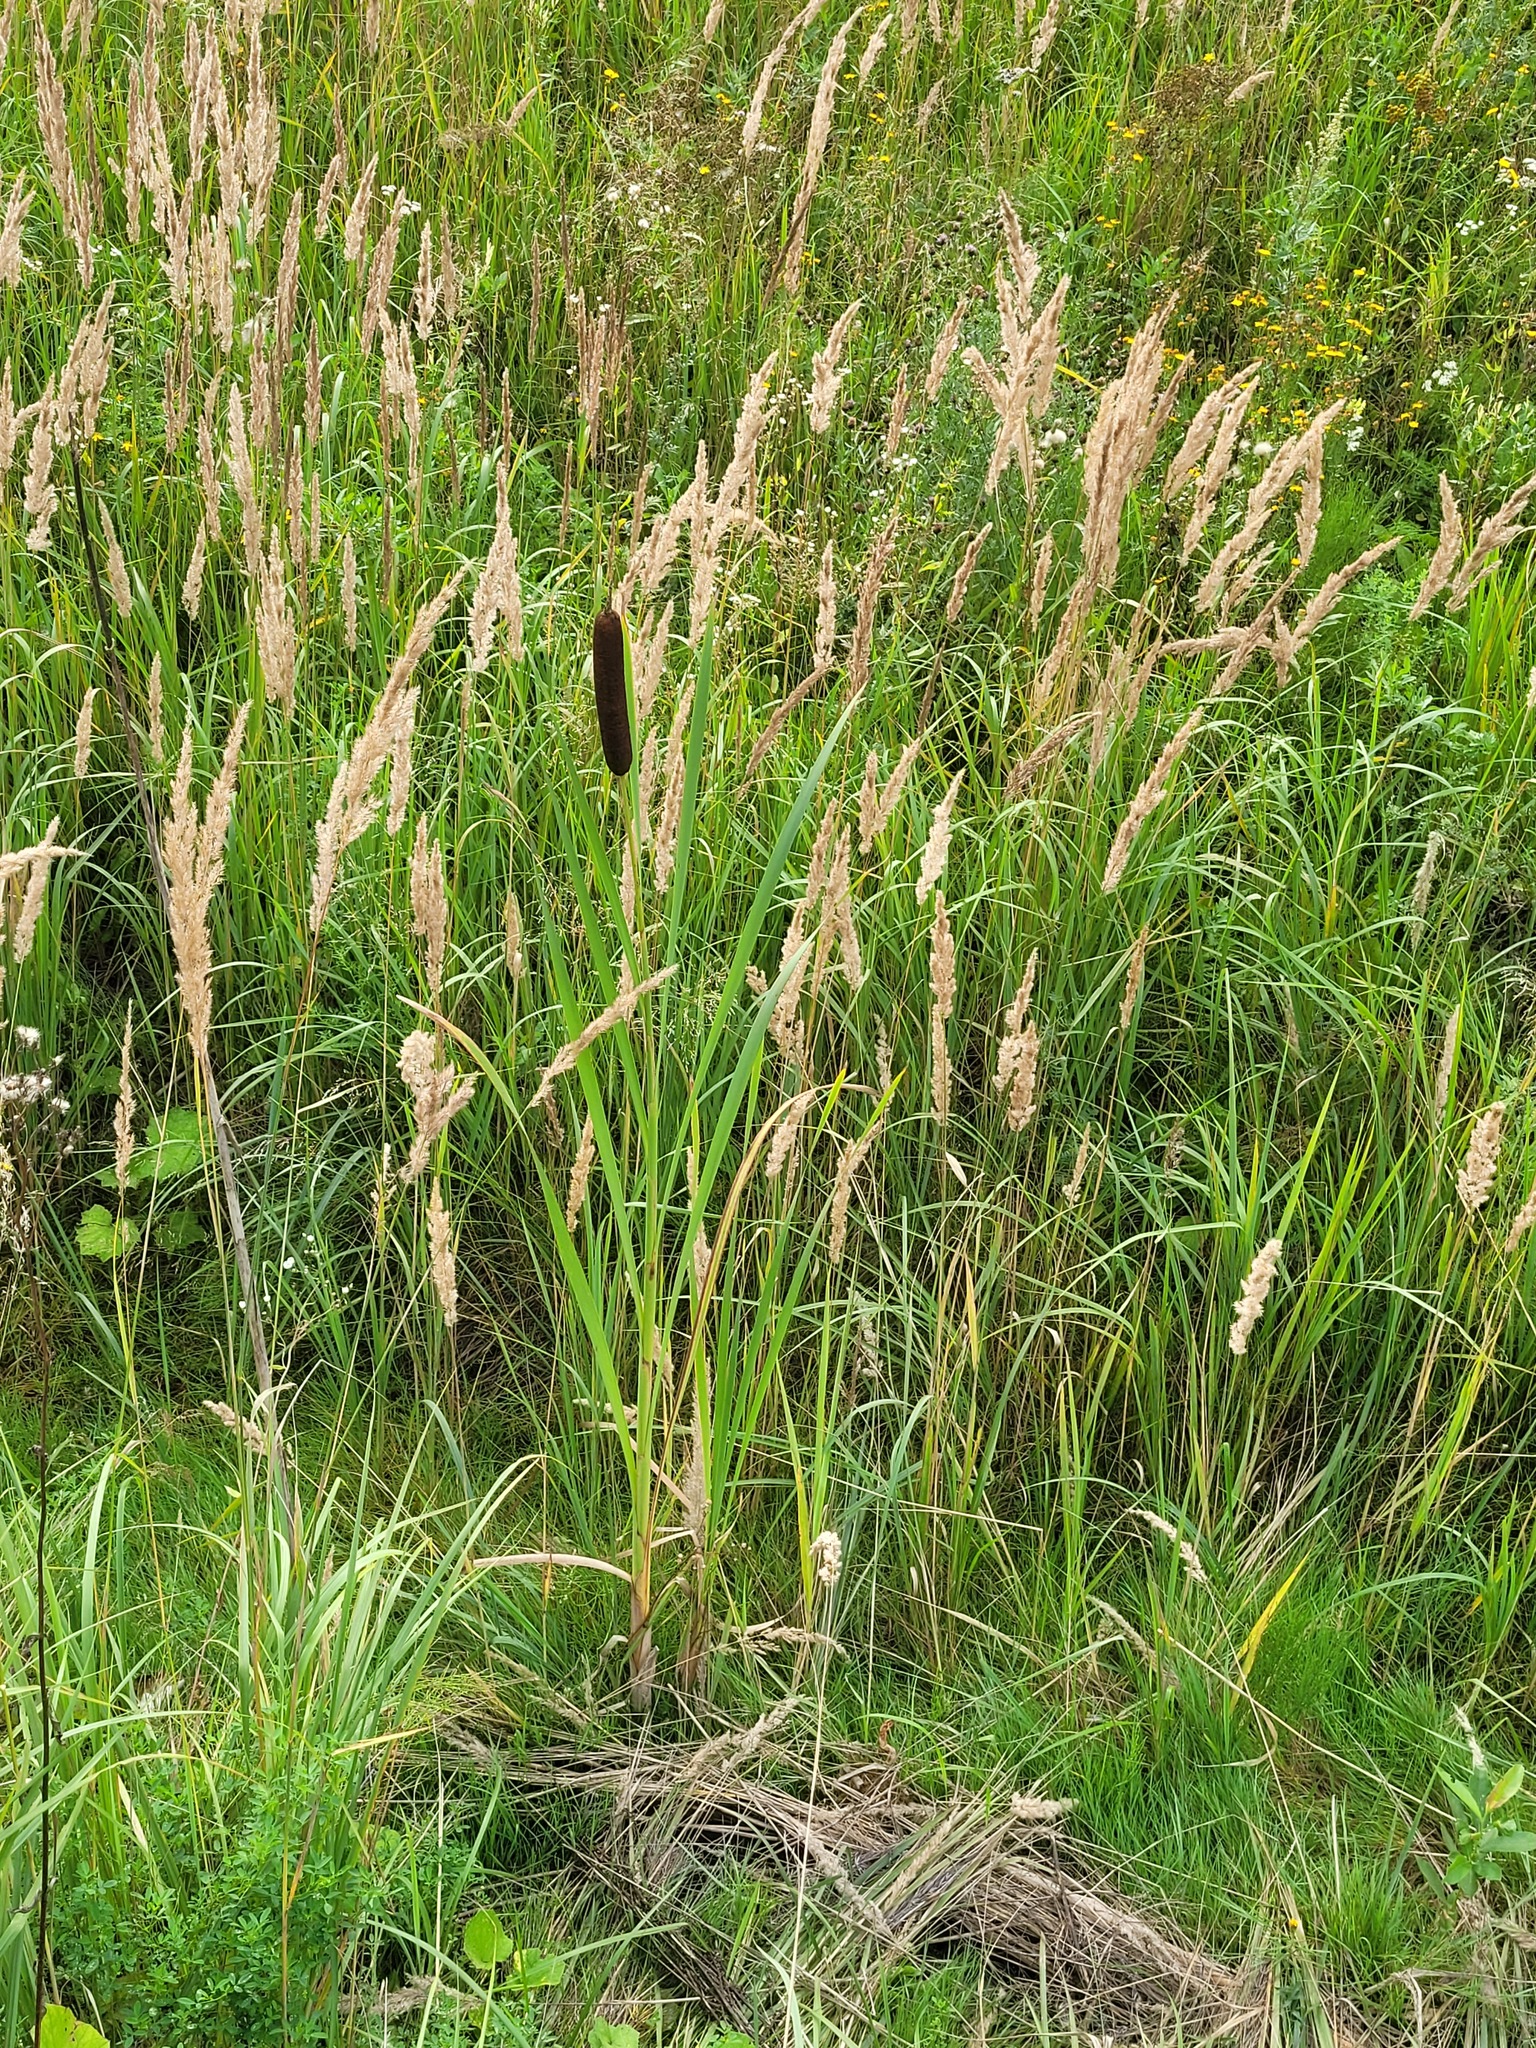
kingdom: Plantae
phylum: Tracheophyta
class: Liliopsida
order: Poales
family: Typhaceae
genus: Typha
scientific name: Typha latifolia
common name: Broadleaf cattail
